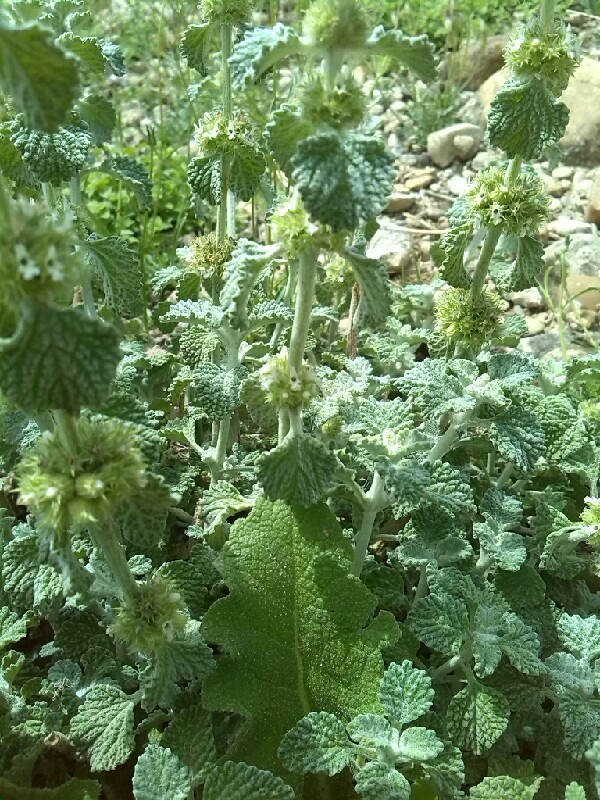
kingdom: Plantae
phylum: Tracheophyta
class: Magnoliopsida
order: Lamiales
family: Lamiaceae
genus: Marrubium
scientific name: Marrubium vulgare
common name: Horehound
